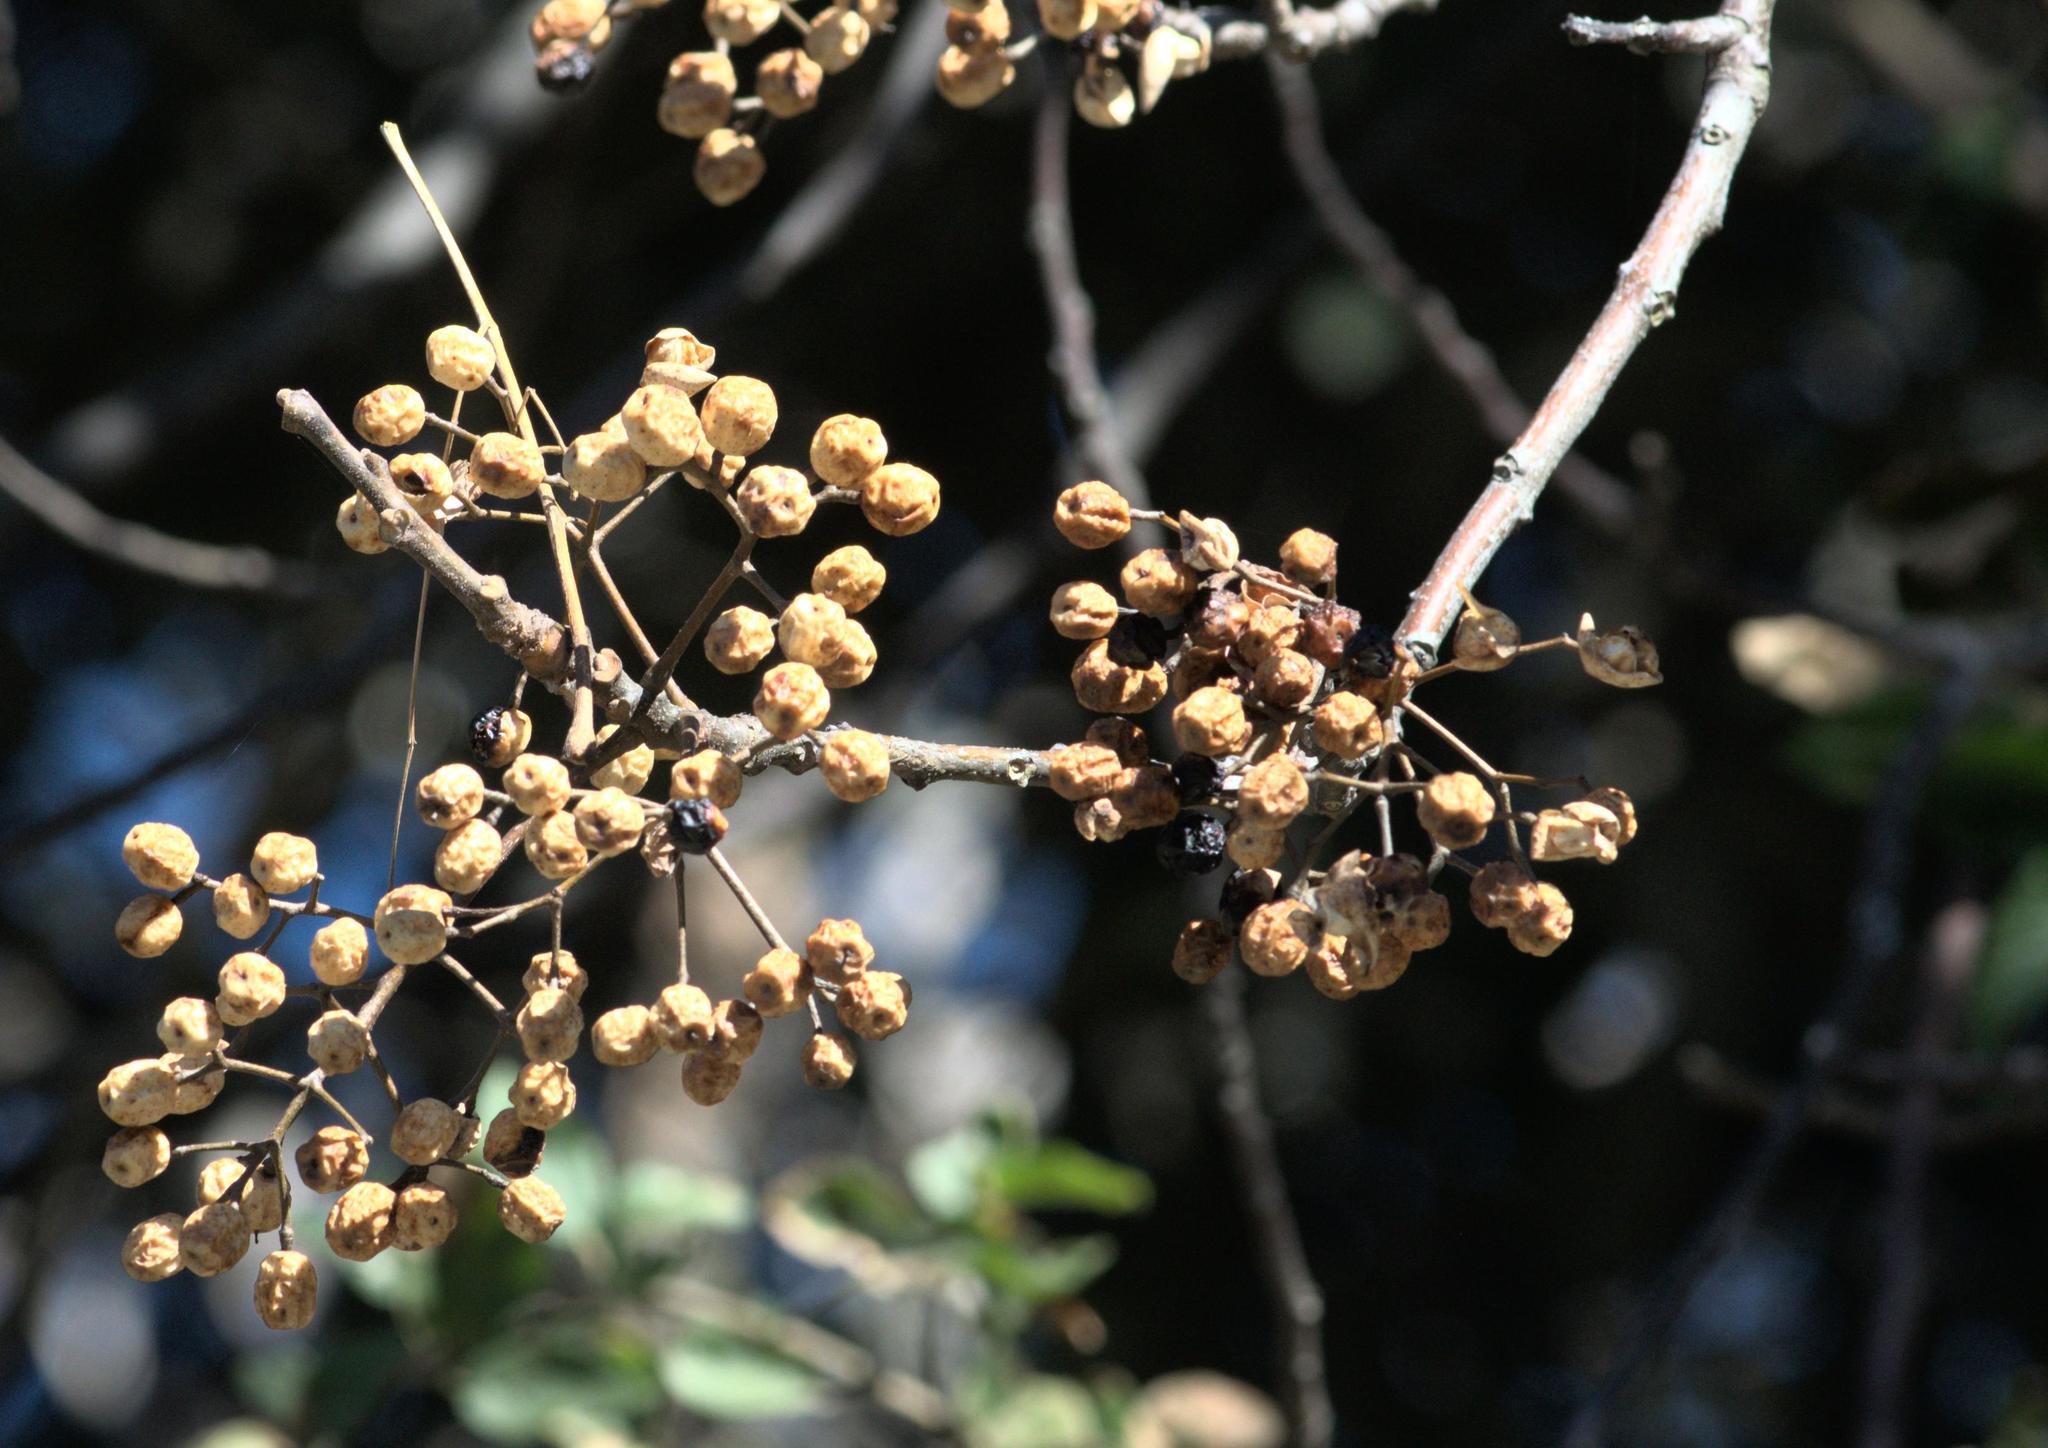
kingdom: Plantae
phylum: Tracheophyta
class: Magnoliopsida
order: Sapindales
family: Meliaceae
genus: Melia
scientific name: Melia azedarach
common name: Chinaberrytree
